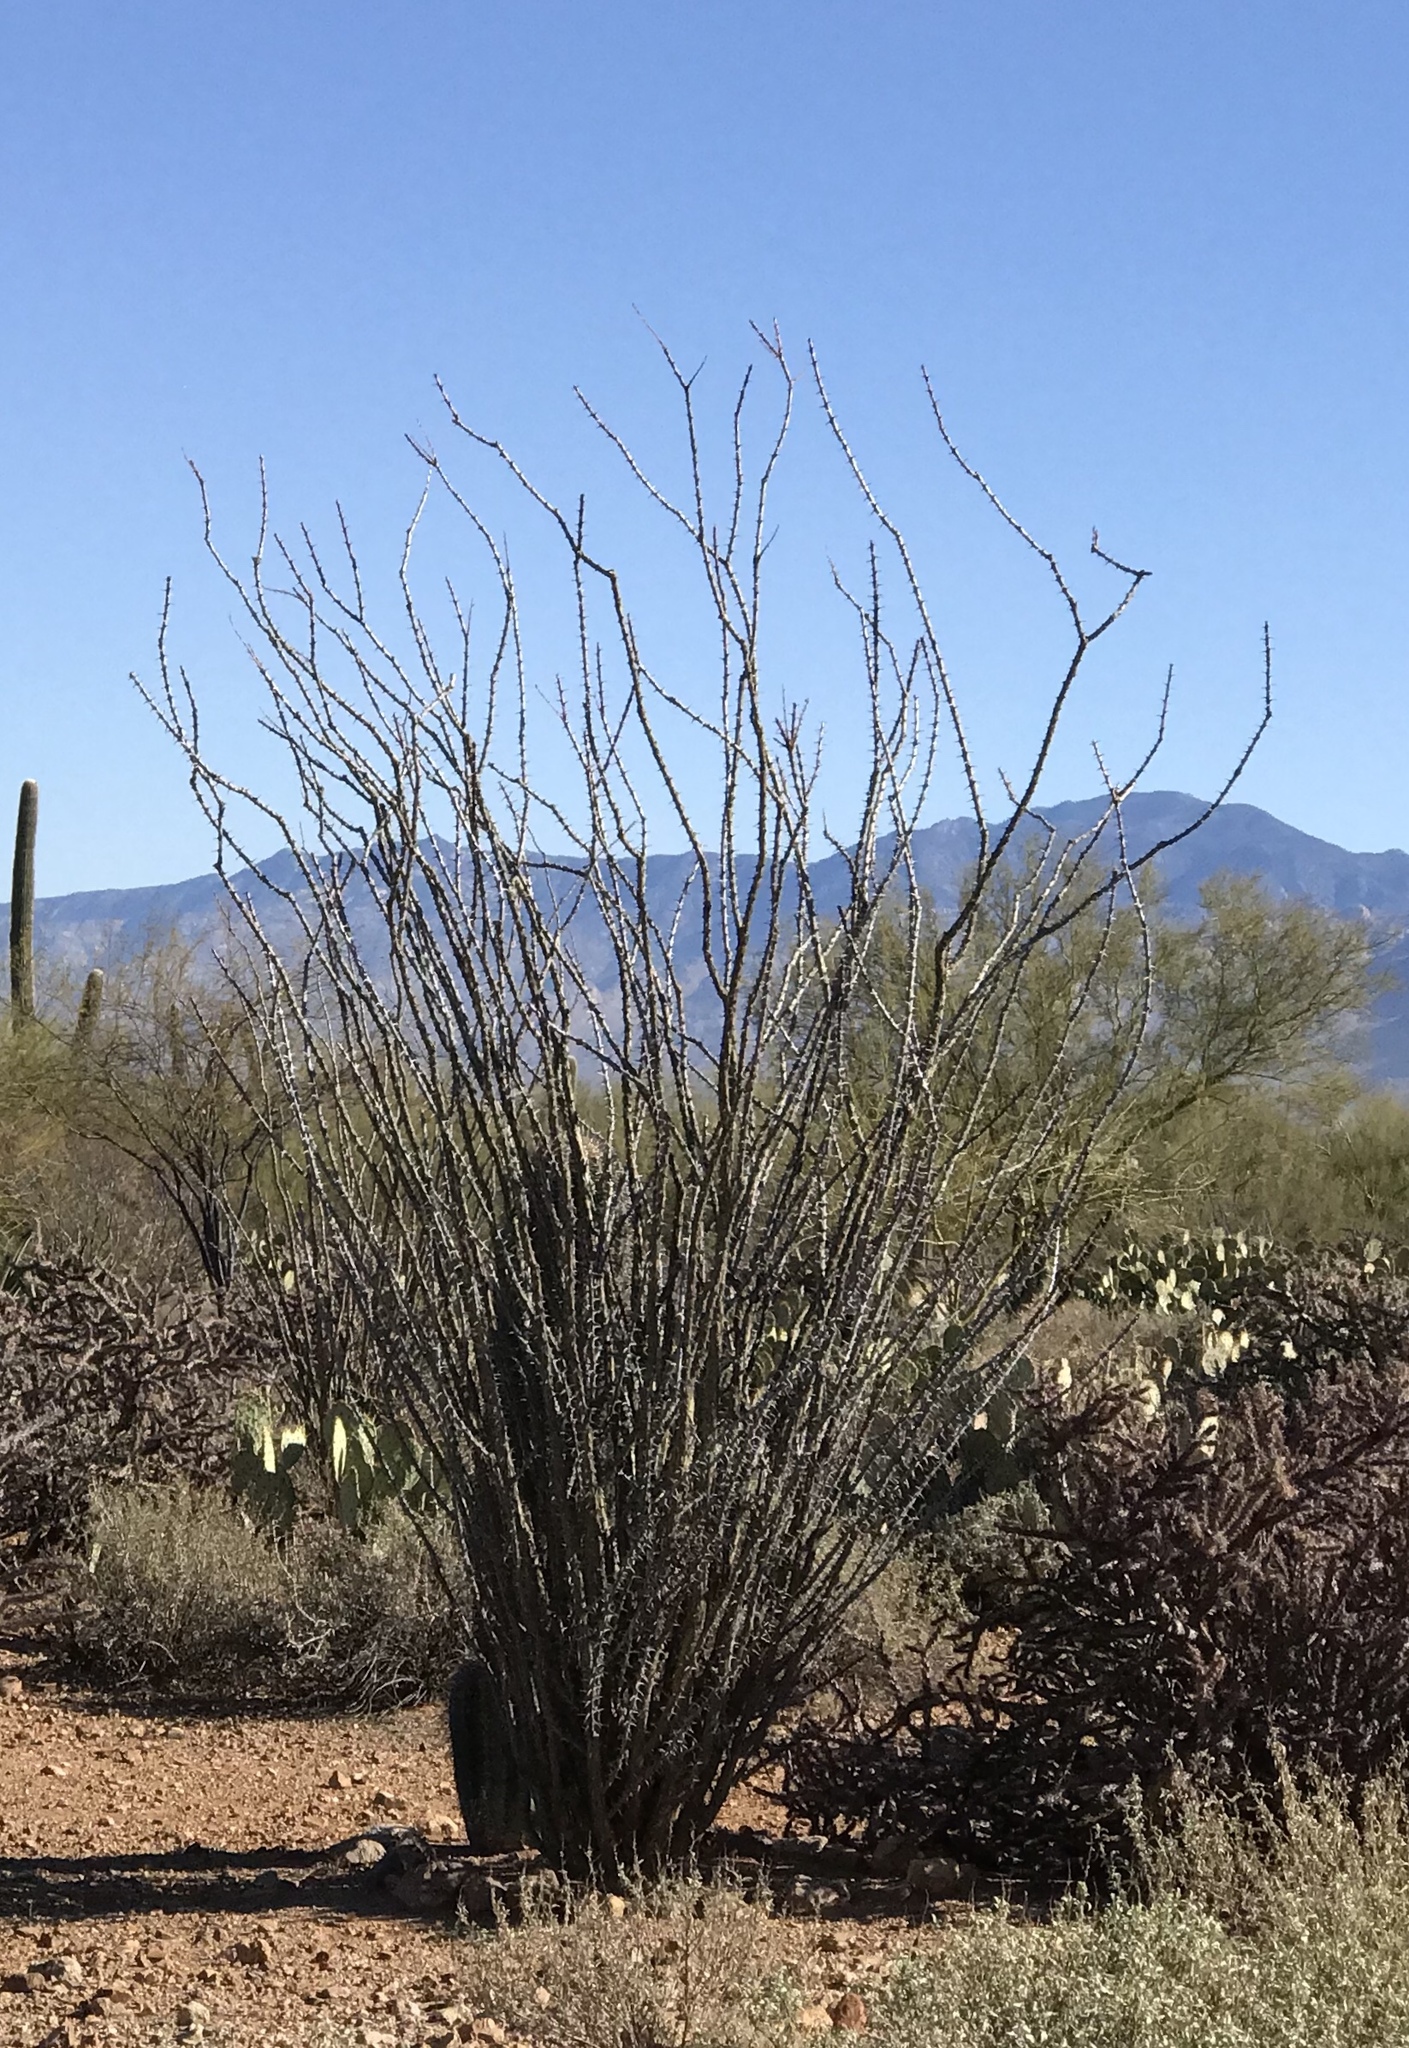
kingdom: Plantae
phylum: Tracheophyta
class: Magnoliopsida
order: Ericales
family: Fouquieriaceae
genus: Fouquieria
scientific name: Fouquieria splendens
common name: Vine-cactus
